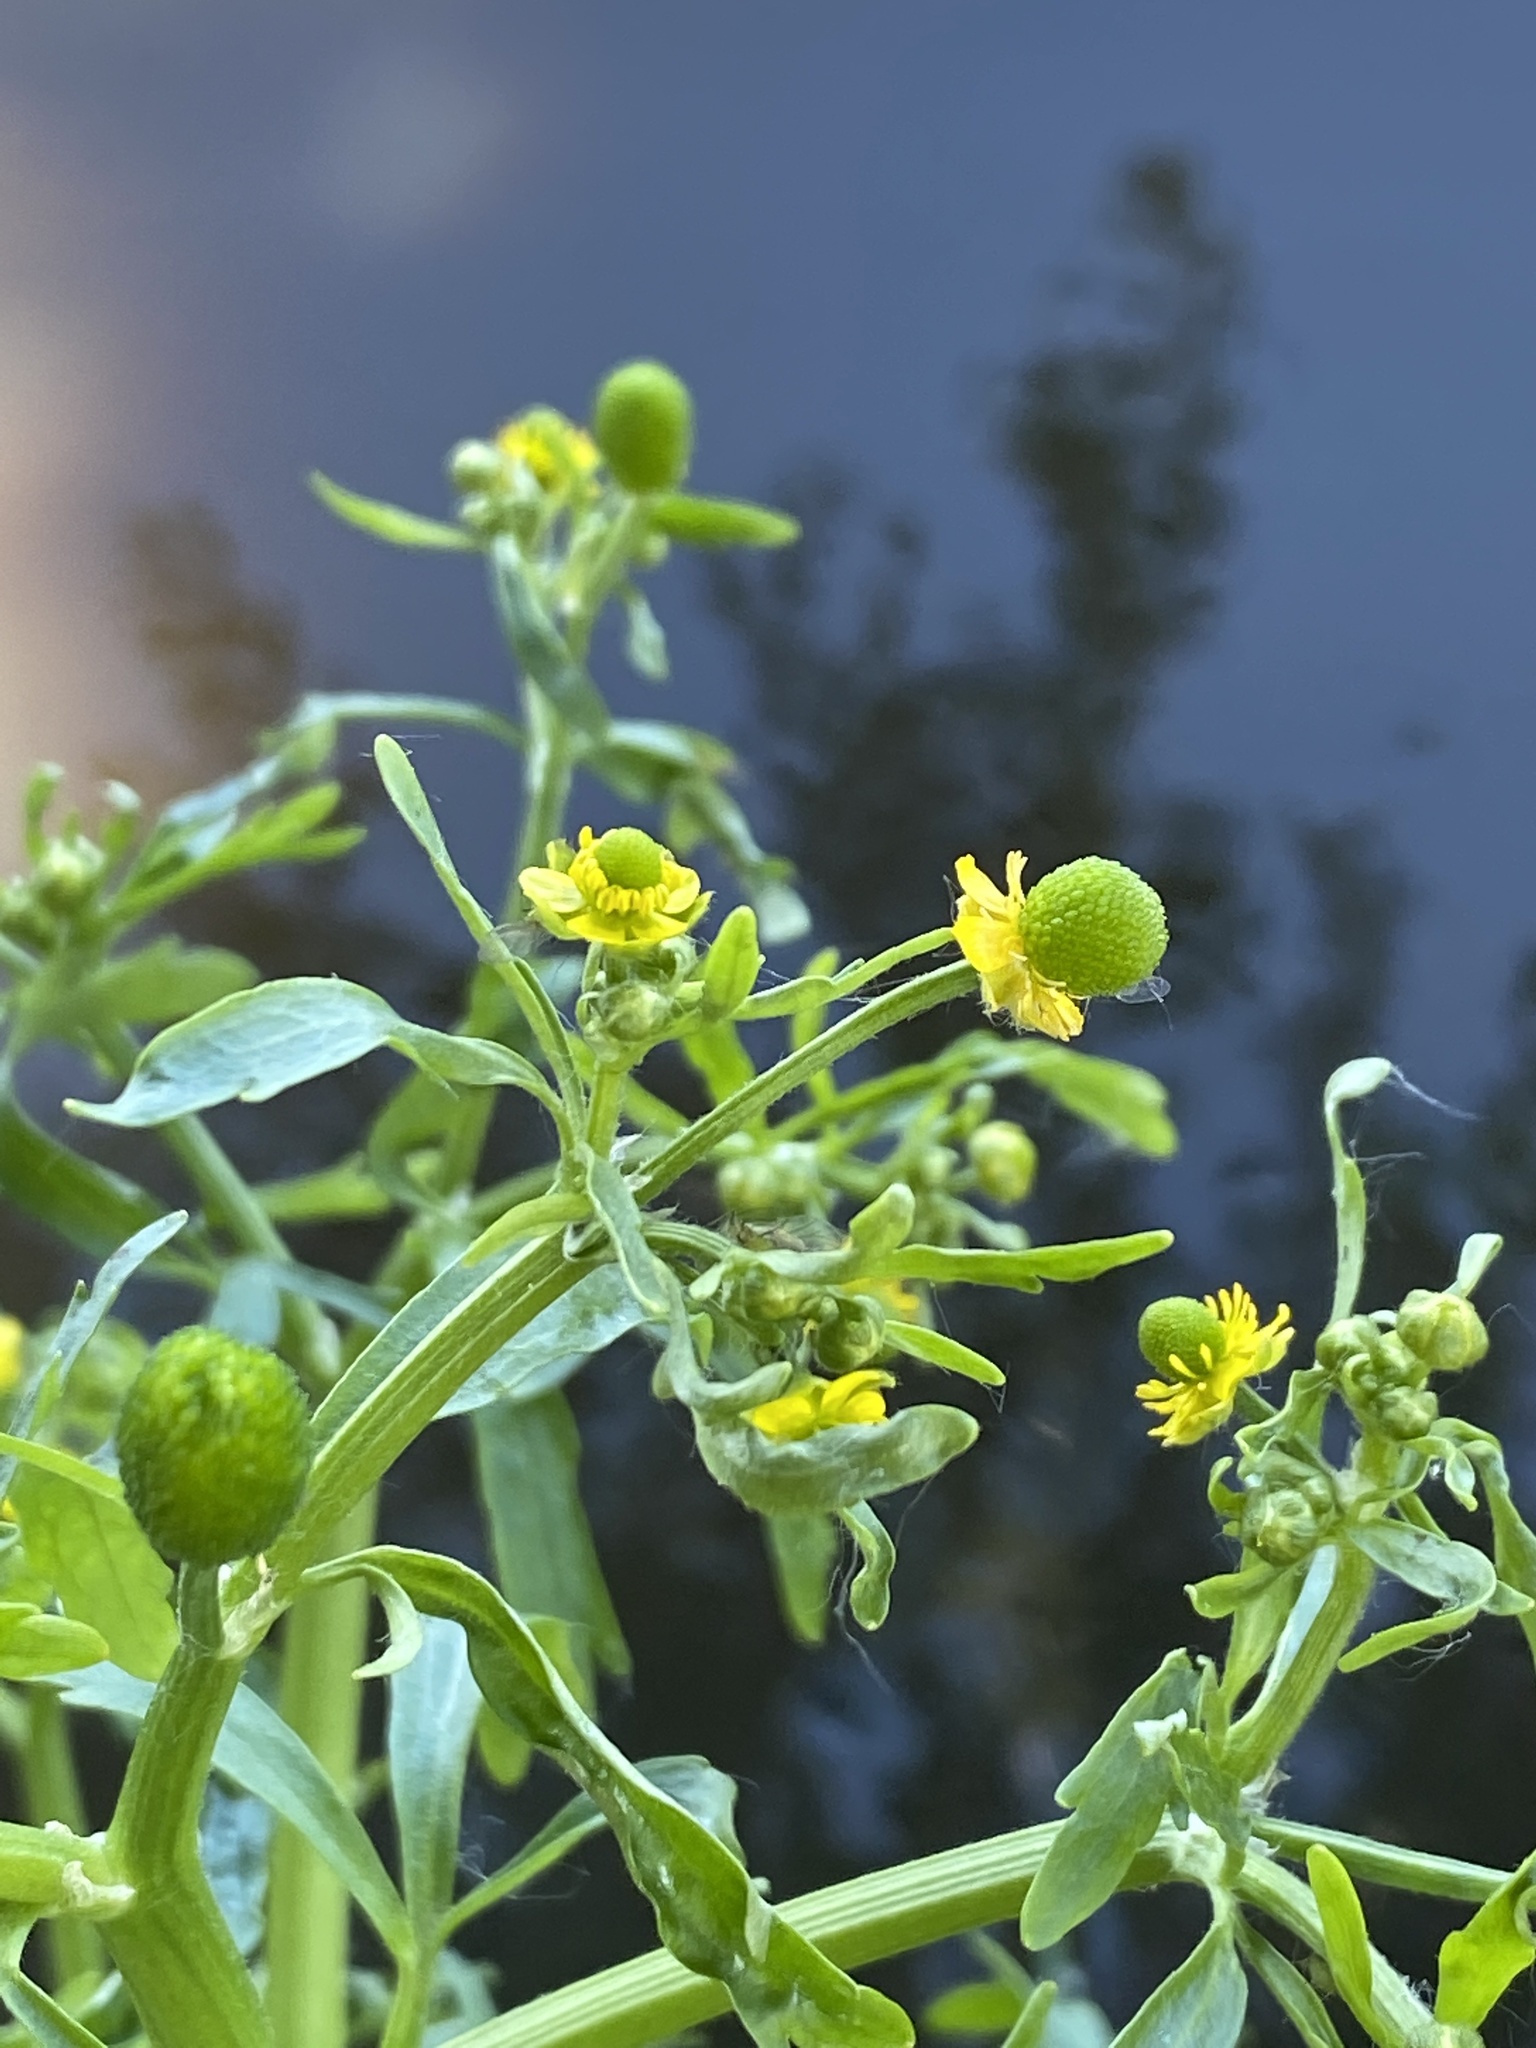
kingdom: Plantae
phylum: Tracheophyta
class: Magnoliopsida
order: Ranunculales
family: Ranunculaceae
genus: Ranunculus
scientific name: Ranunculus sceleratus
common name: Celery-leaved buttercup
